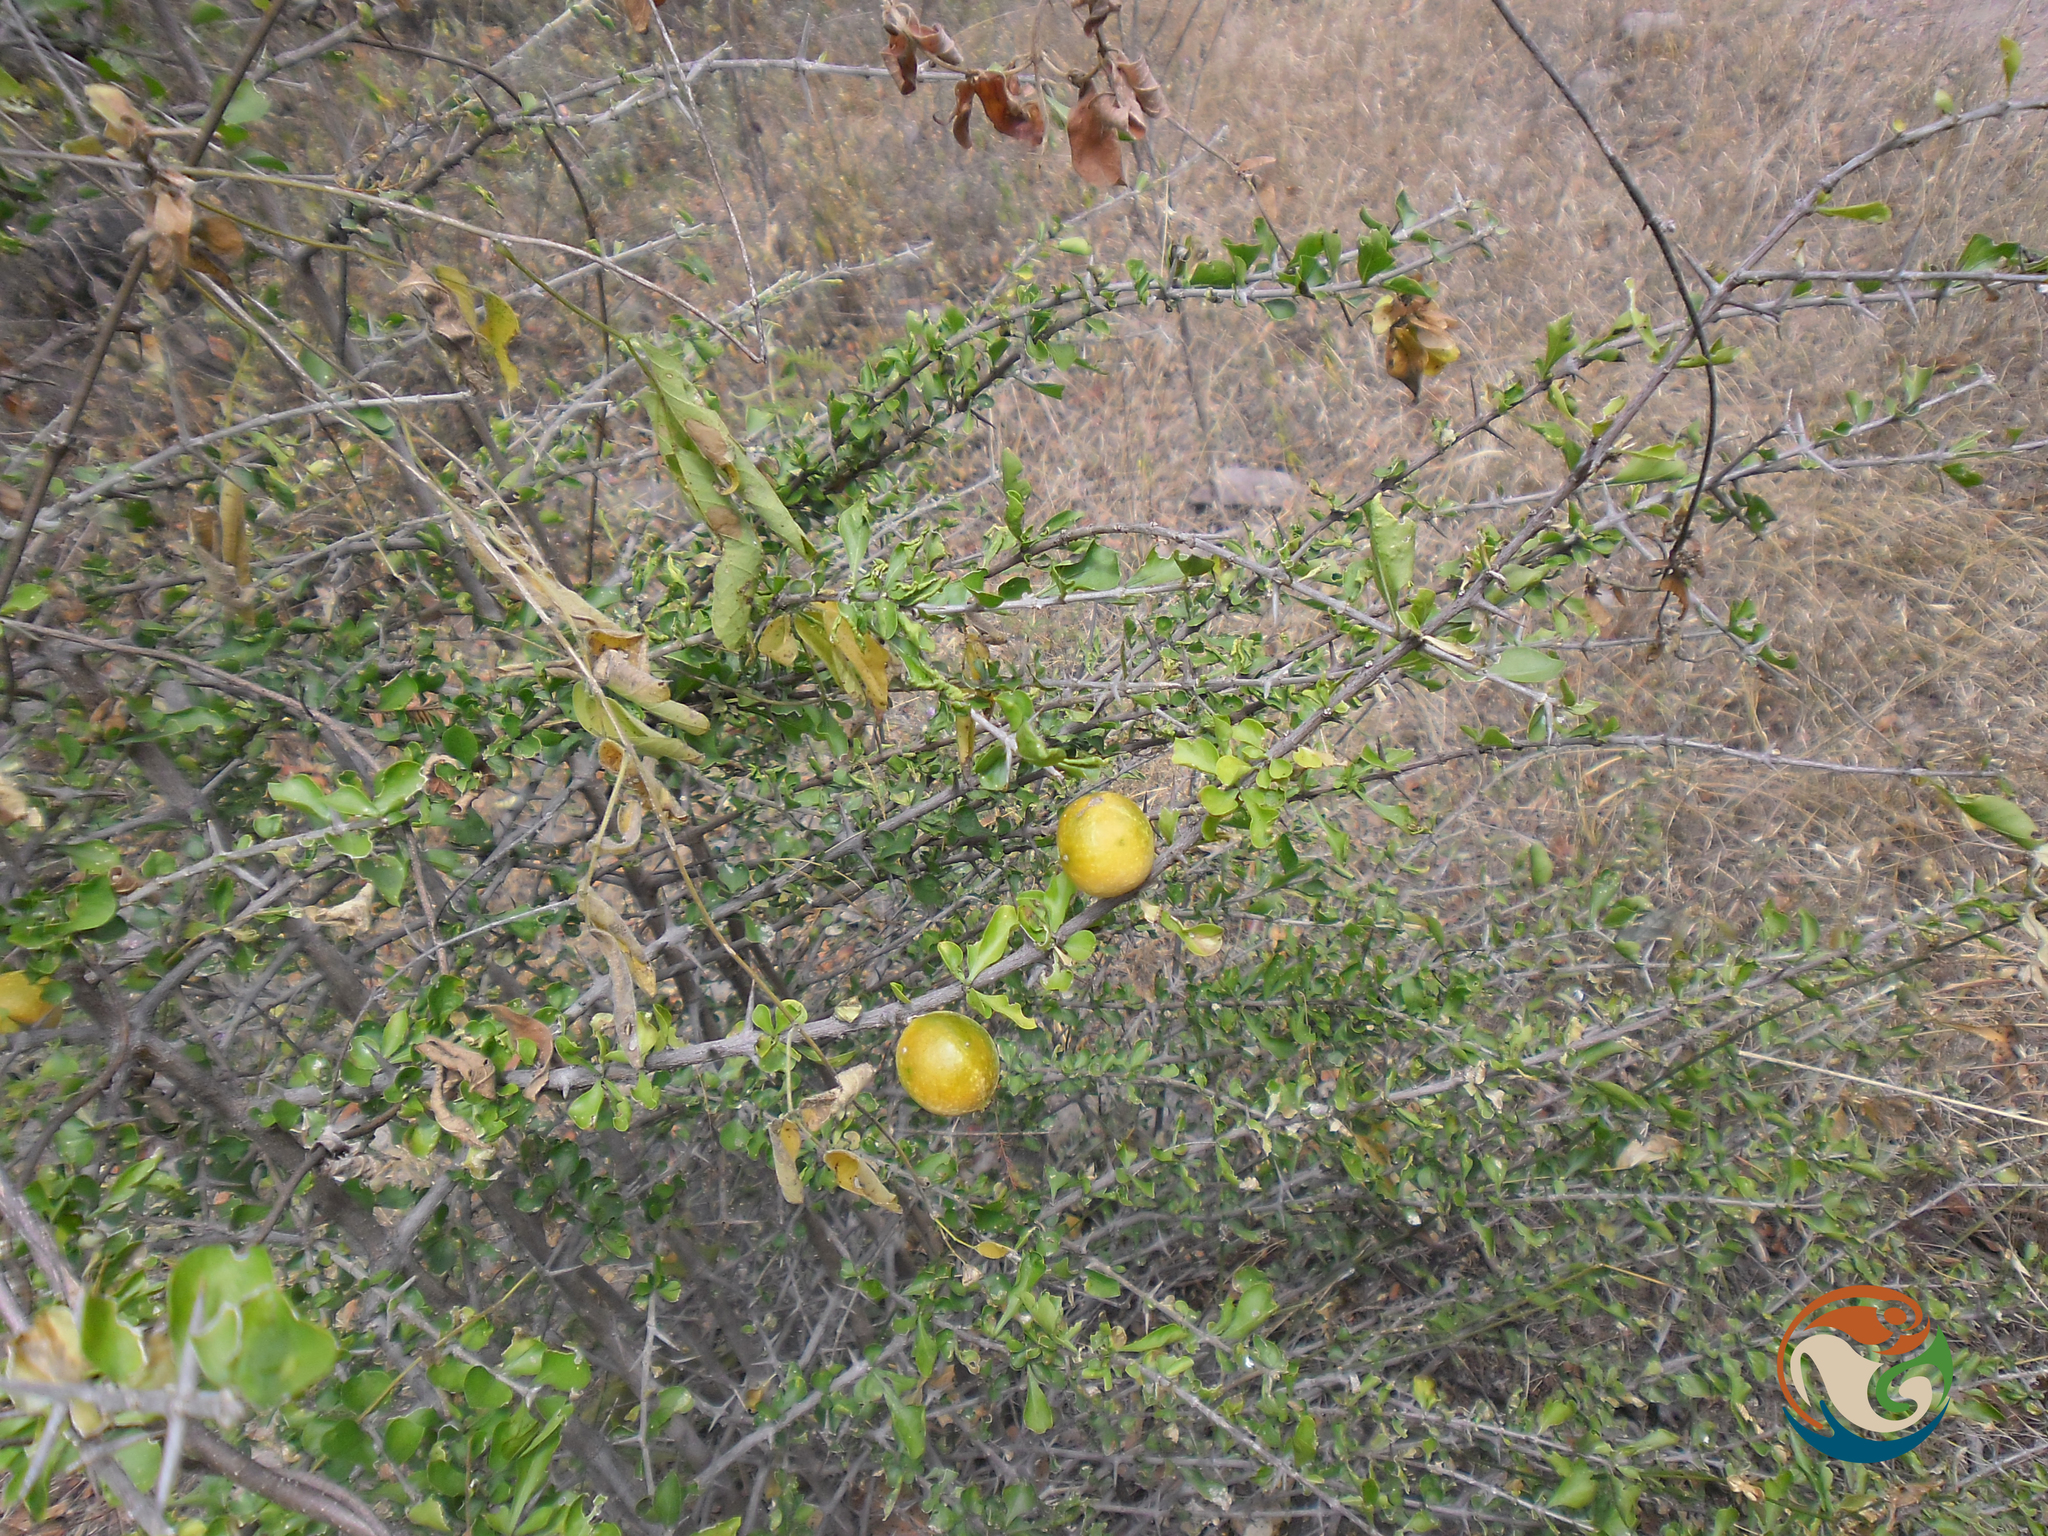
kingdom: Plantae
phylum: Tracheophyta
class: Magnoliopsida
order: Gentianales
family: Rubiaceae
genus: Randia
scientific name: Randia thurberi
